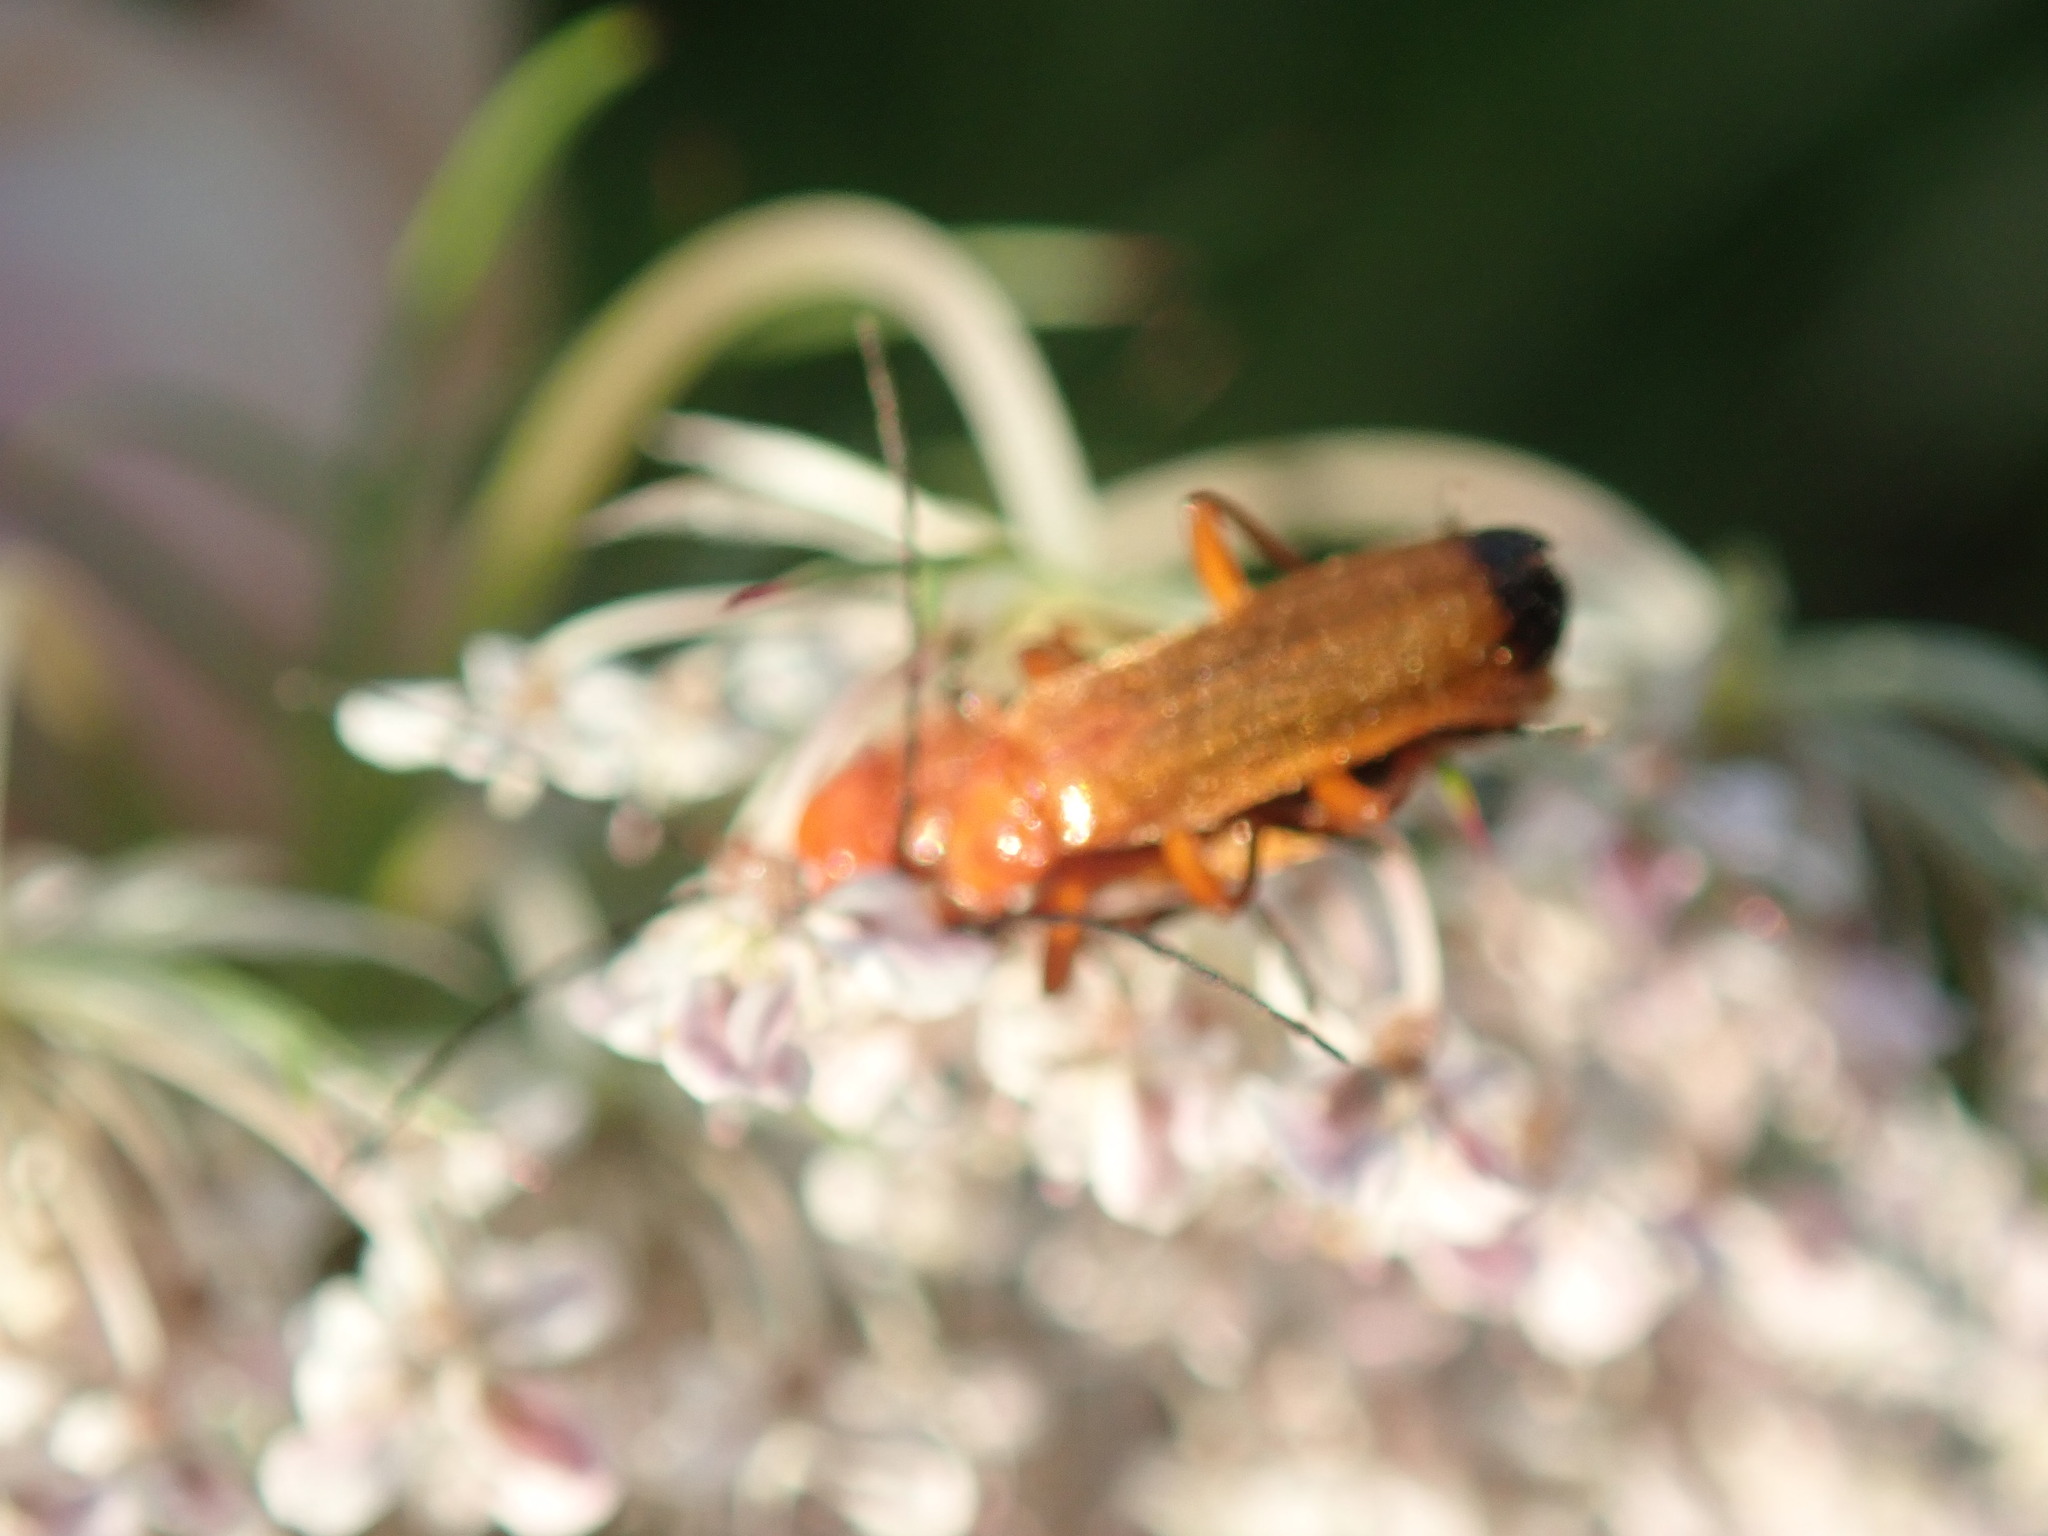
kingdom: Animalia
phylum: Arthropoda
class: Insecta
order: Coleoptera
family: Cantharidae
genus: Rhagonycha
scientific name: Rhagonycha fulva
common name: Common red soldier beetle
